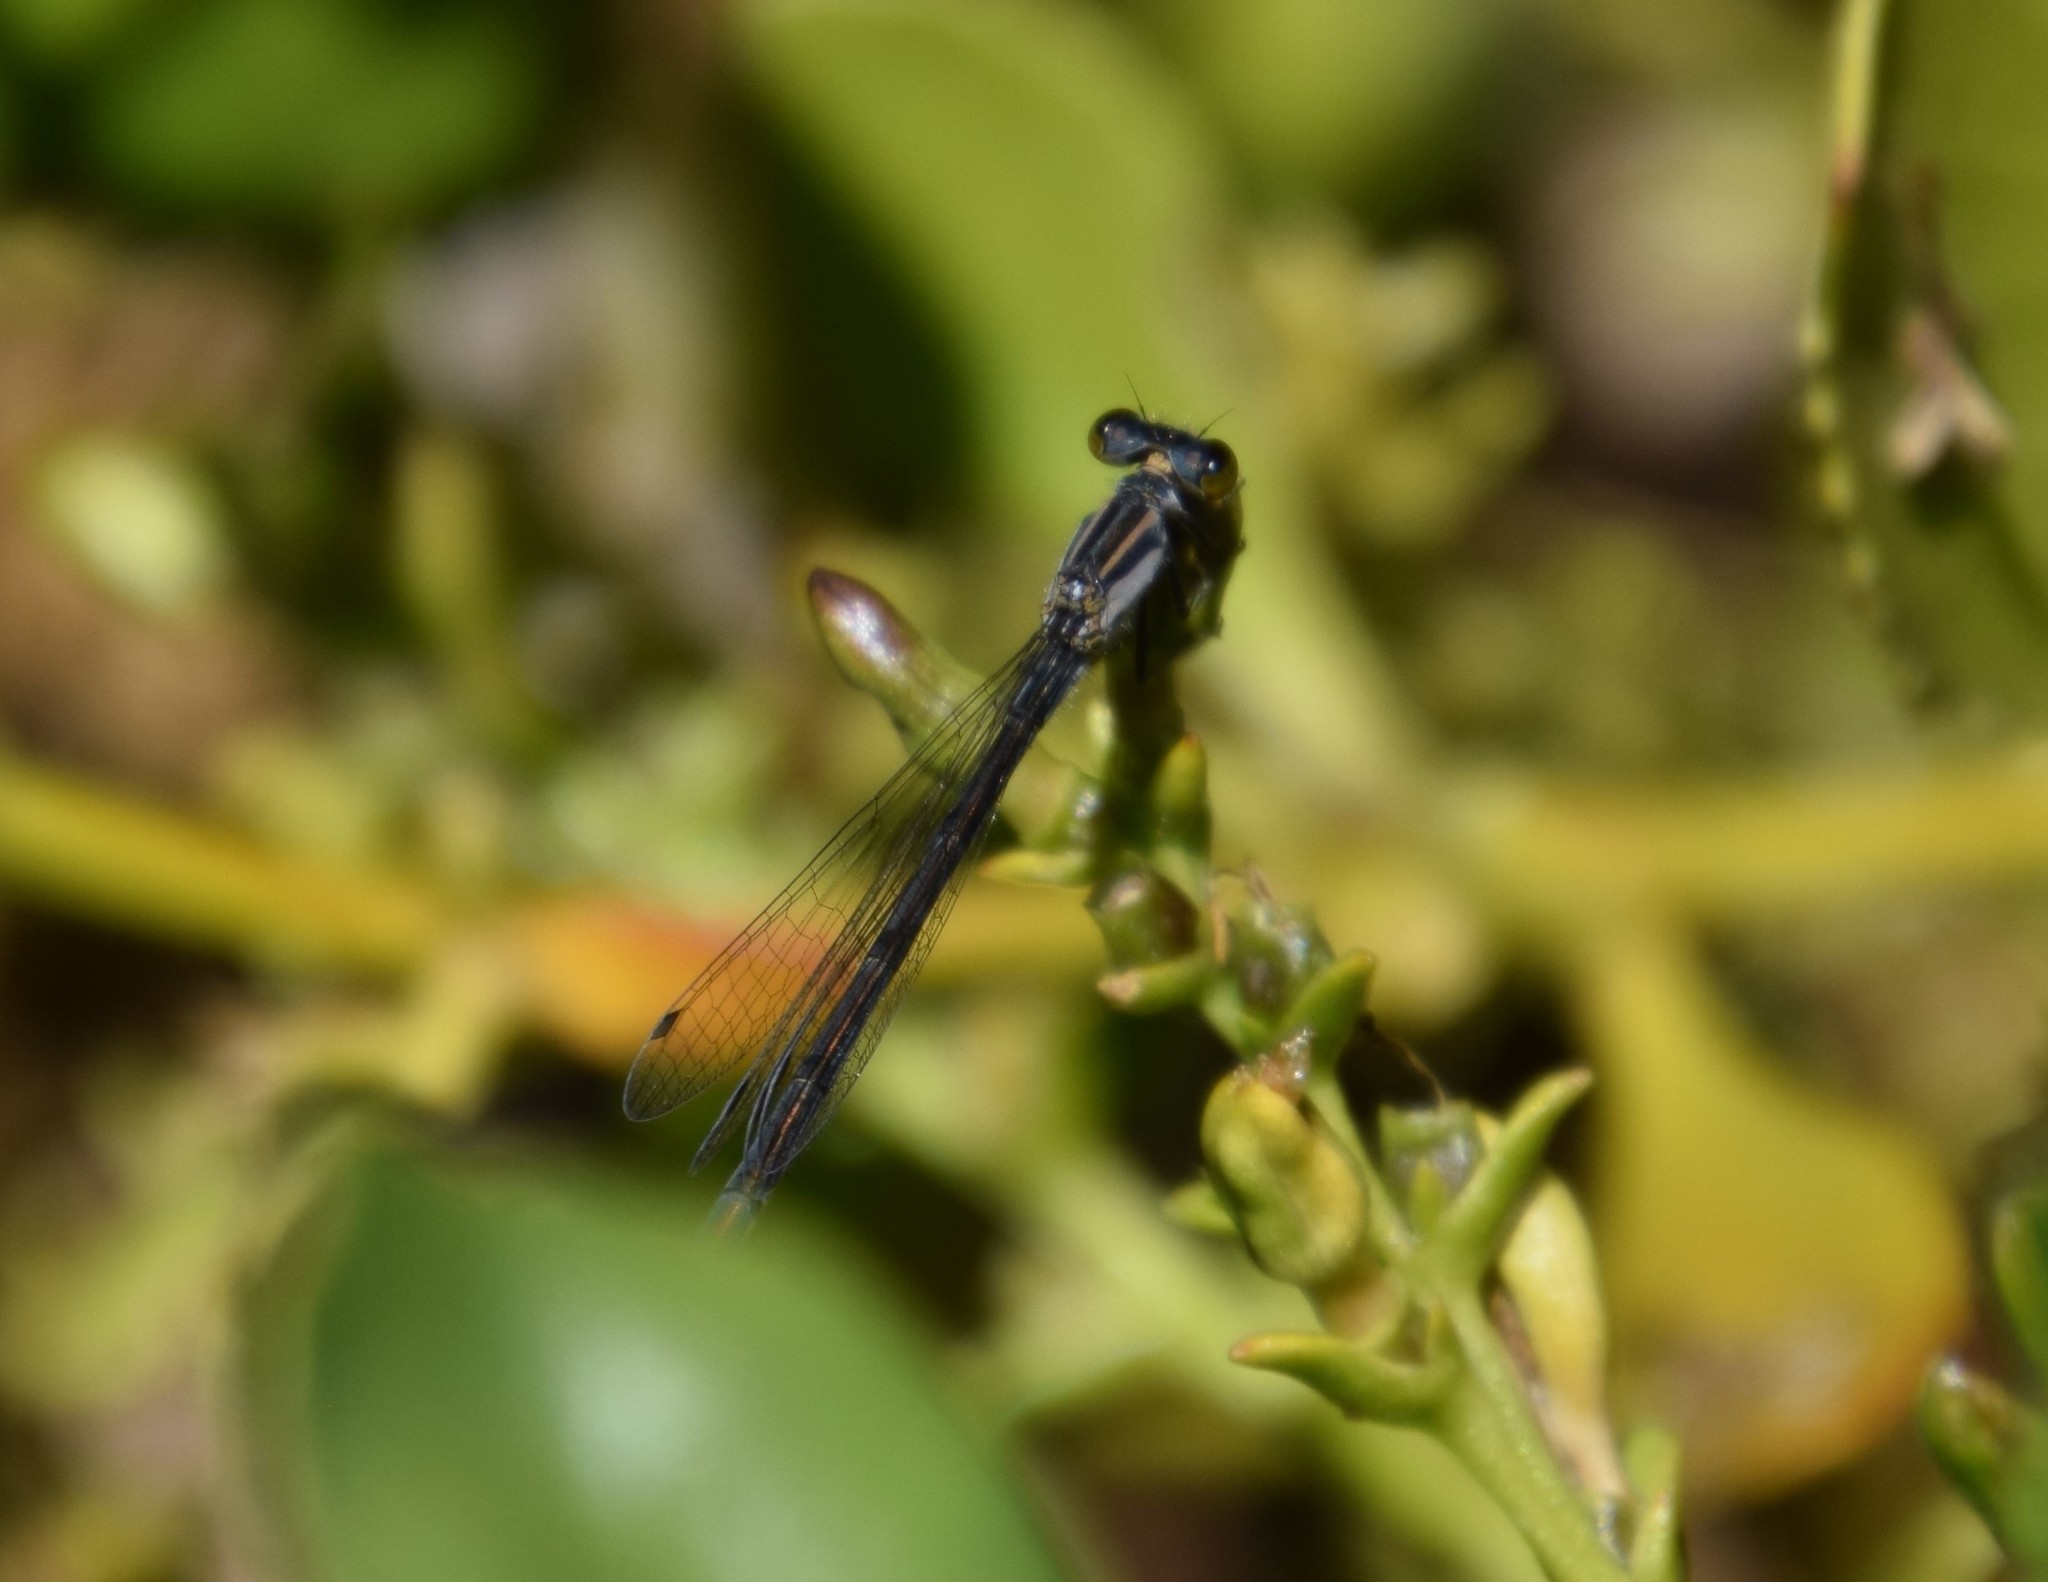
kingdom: Animalia
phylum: Arthropoda
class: Insecta
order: Odonata
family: Coenagrionidae
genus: Ischnura
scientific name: Ischnura heterosticta
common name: Common bluetail
